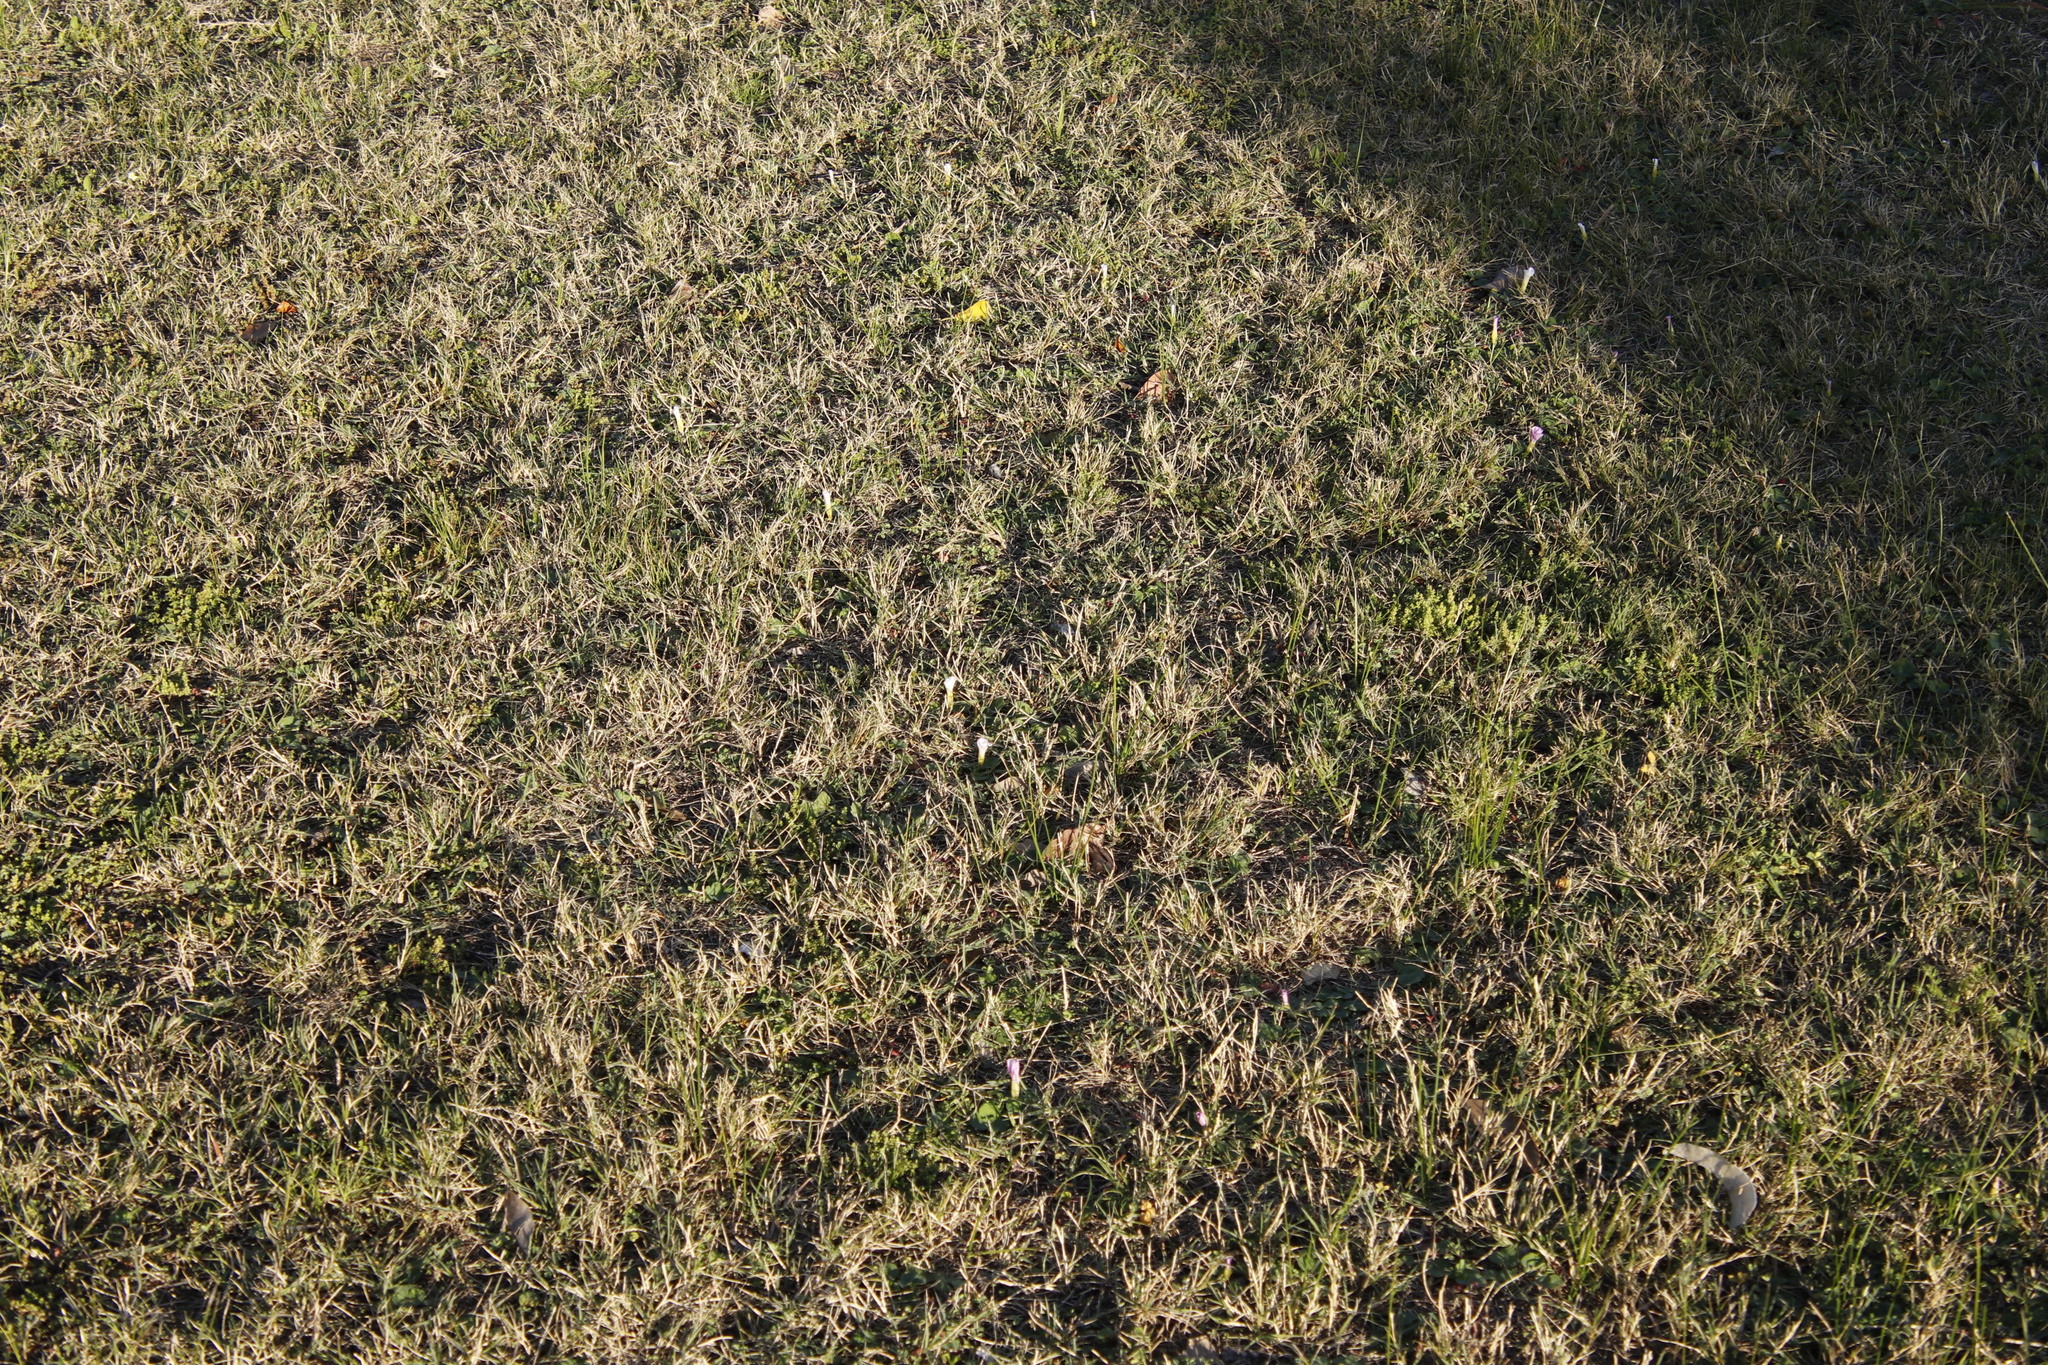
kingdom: Plantae
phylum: Tracheophyta
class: Magnoliopsida
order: Oxalidales
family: Oxalidaceae
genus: Oxalis
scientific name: Oxalis purpurea
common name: Purple woodsorrel
